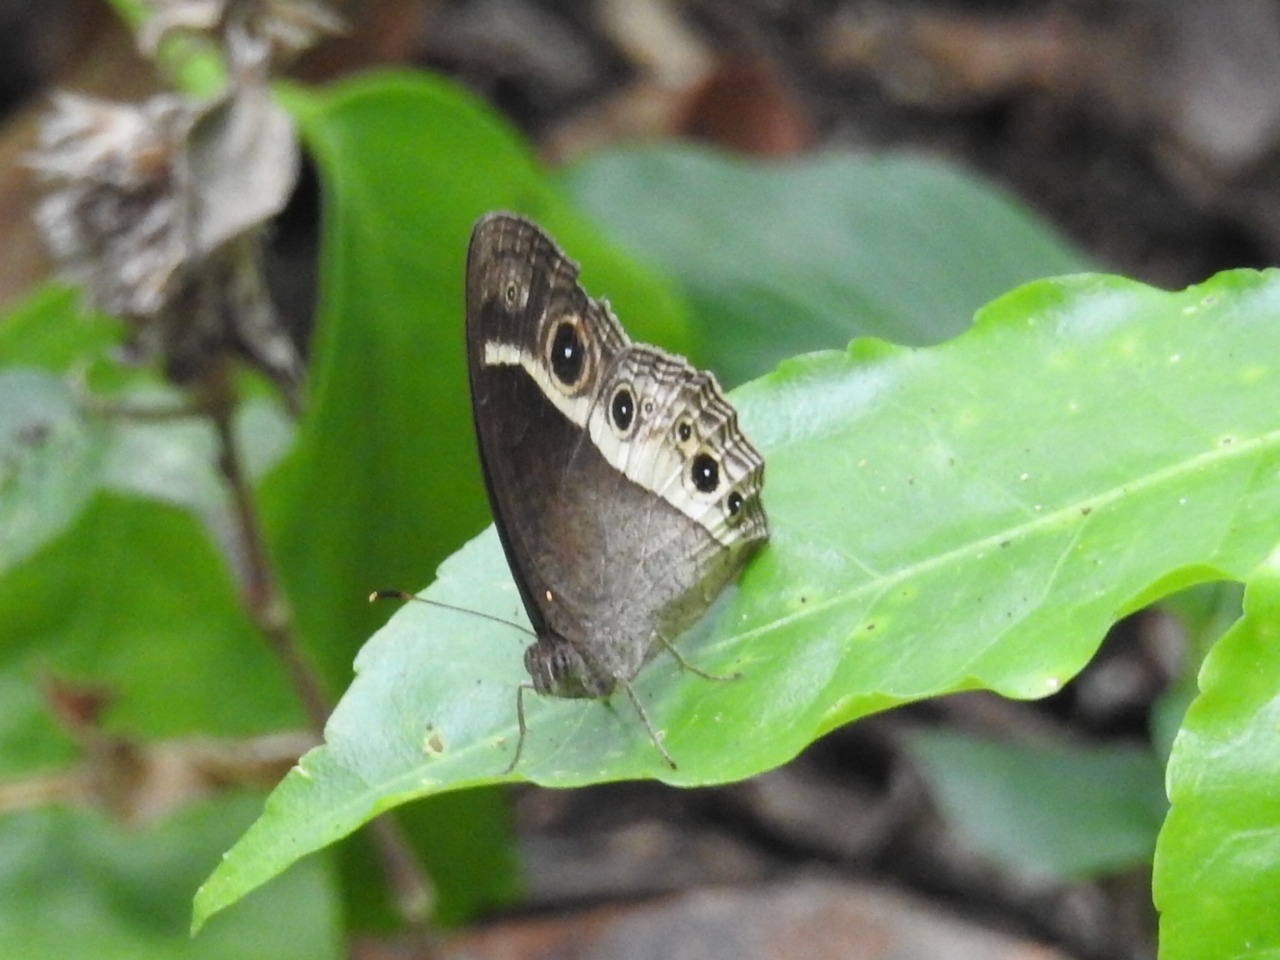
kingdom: Animalia
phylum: Arthropoda
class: Insecta
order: Lepidoptera
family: Nymphalidae
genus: Mycalesis
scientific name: Mycalesis mynois
